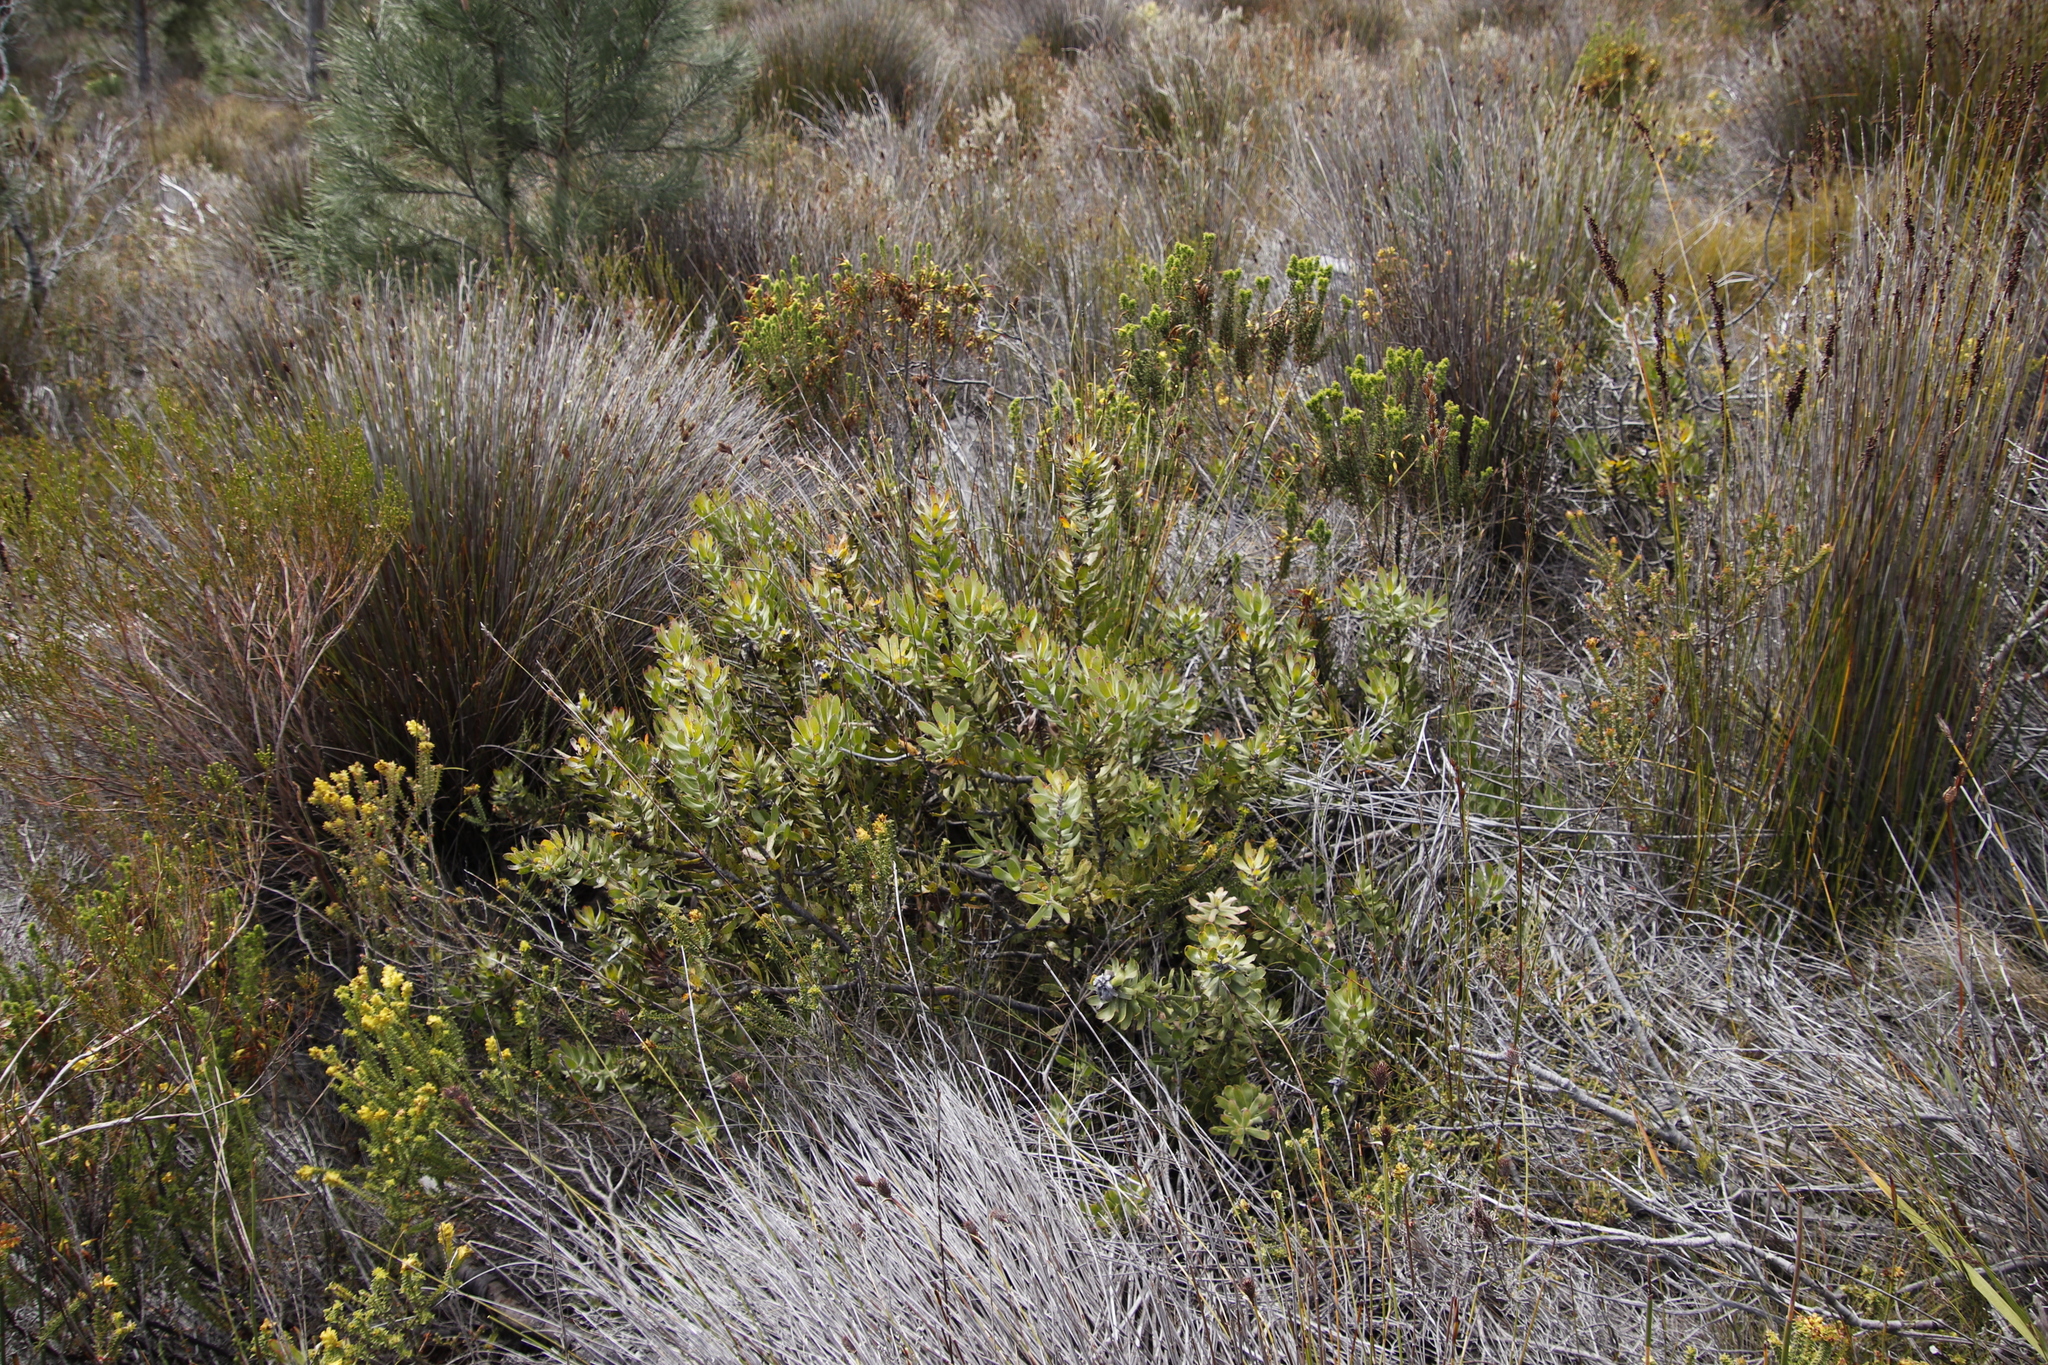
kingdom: Plantae
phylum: Tracheophyta
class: Magnoliopsida
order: Proteales
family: Proteaceae
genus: Mimetes
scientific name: Mimetes cucullatus
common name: Common pagoda
